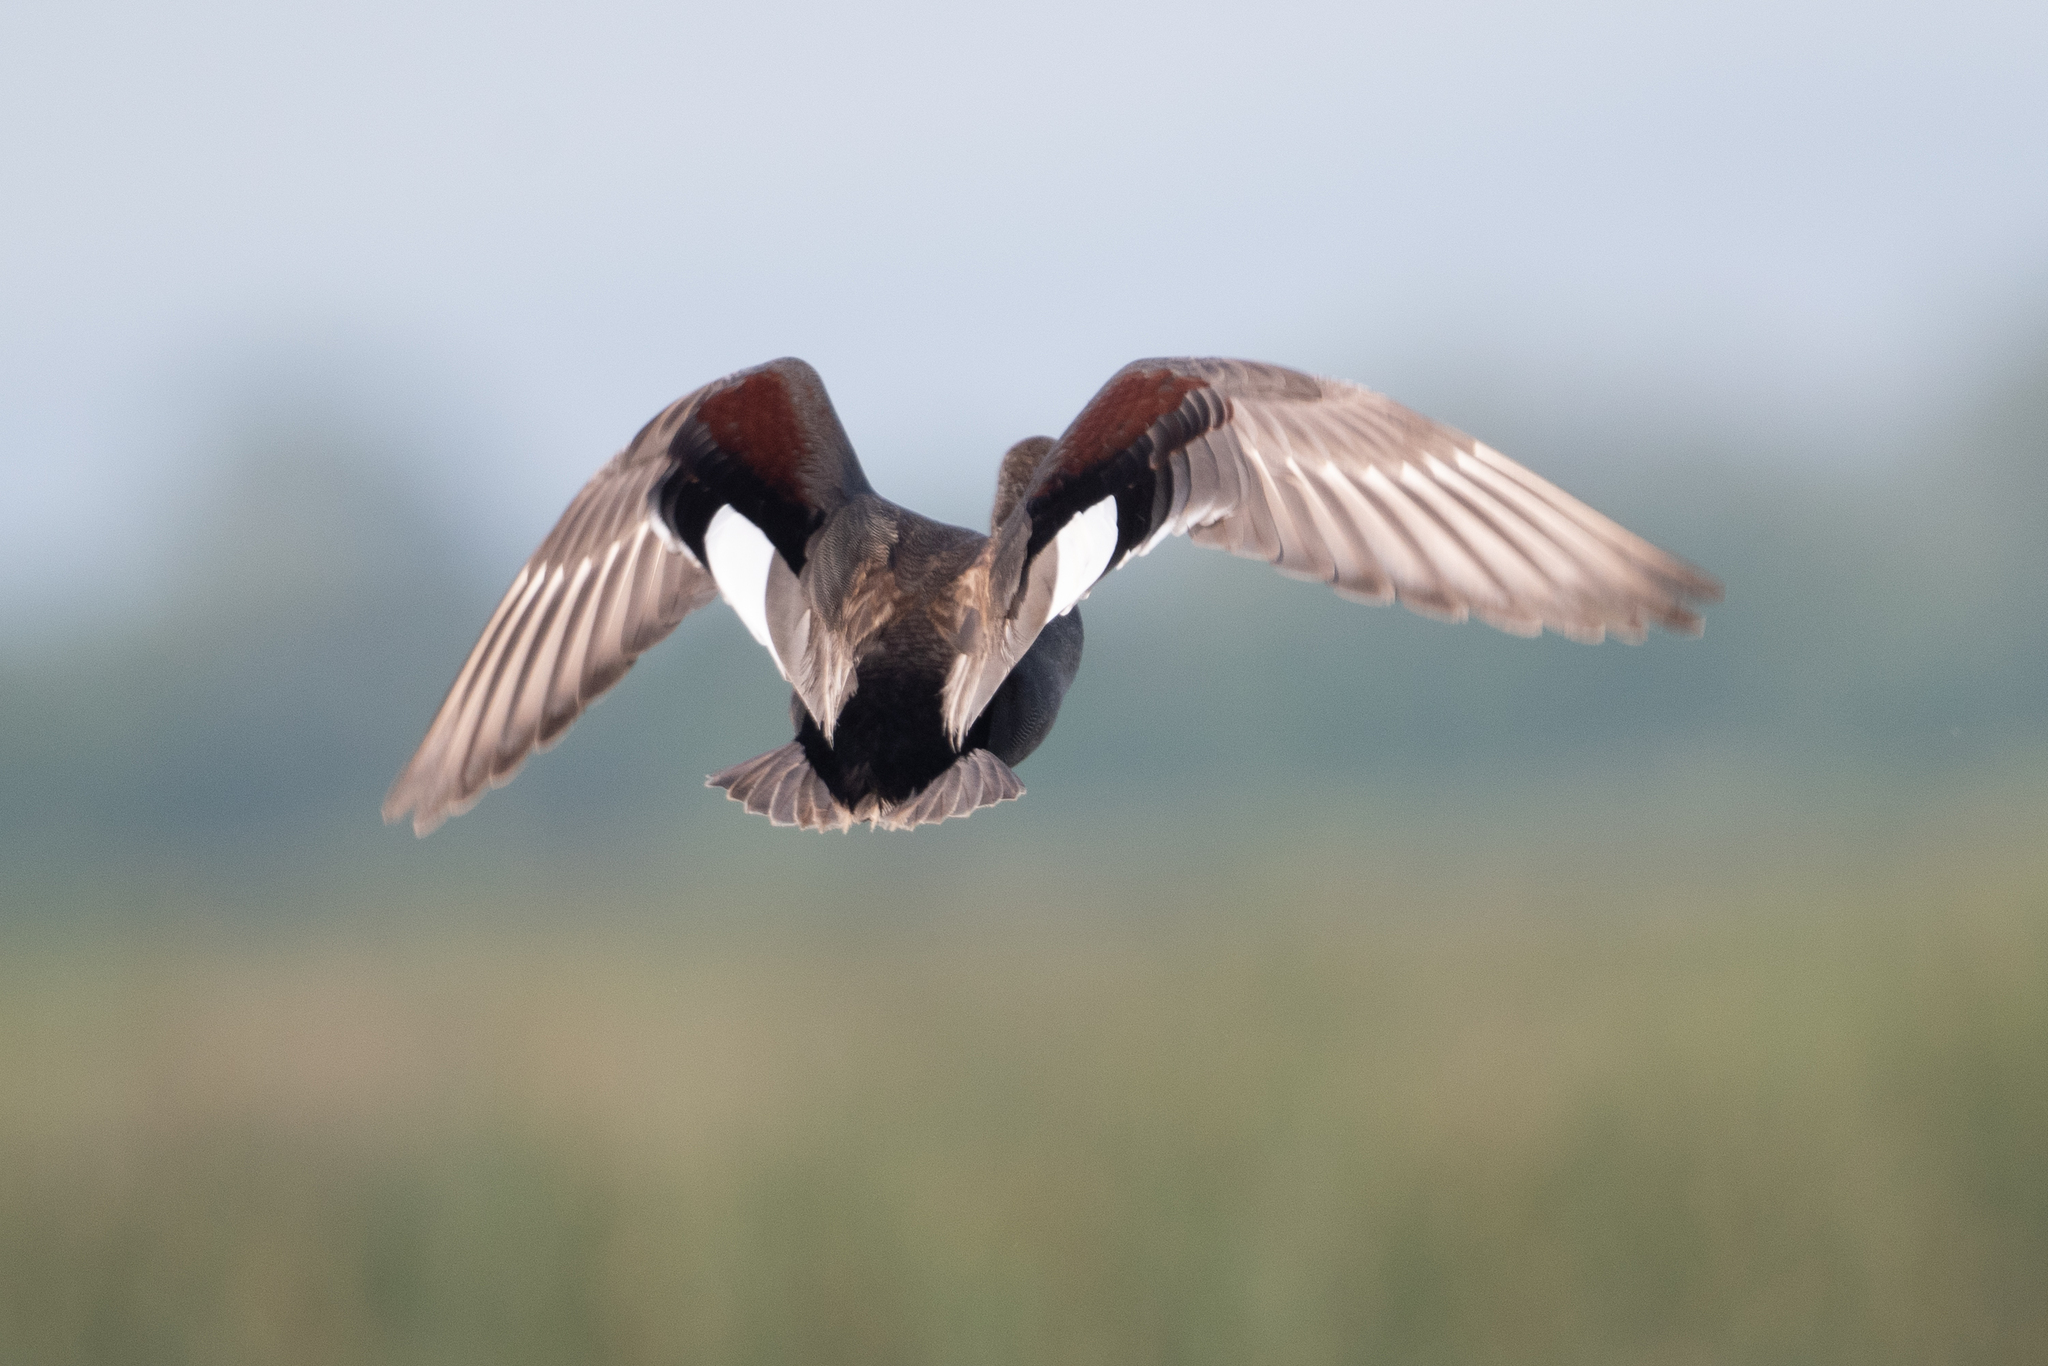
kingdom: Animalia
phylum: Chordata
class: Aves
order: Anseriformes
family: Anatidae
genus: Mareca
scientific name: Mareca strepera
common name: Gadwall
